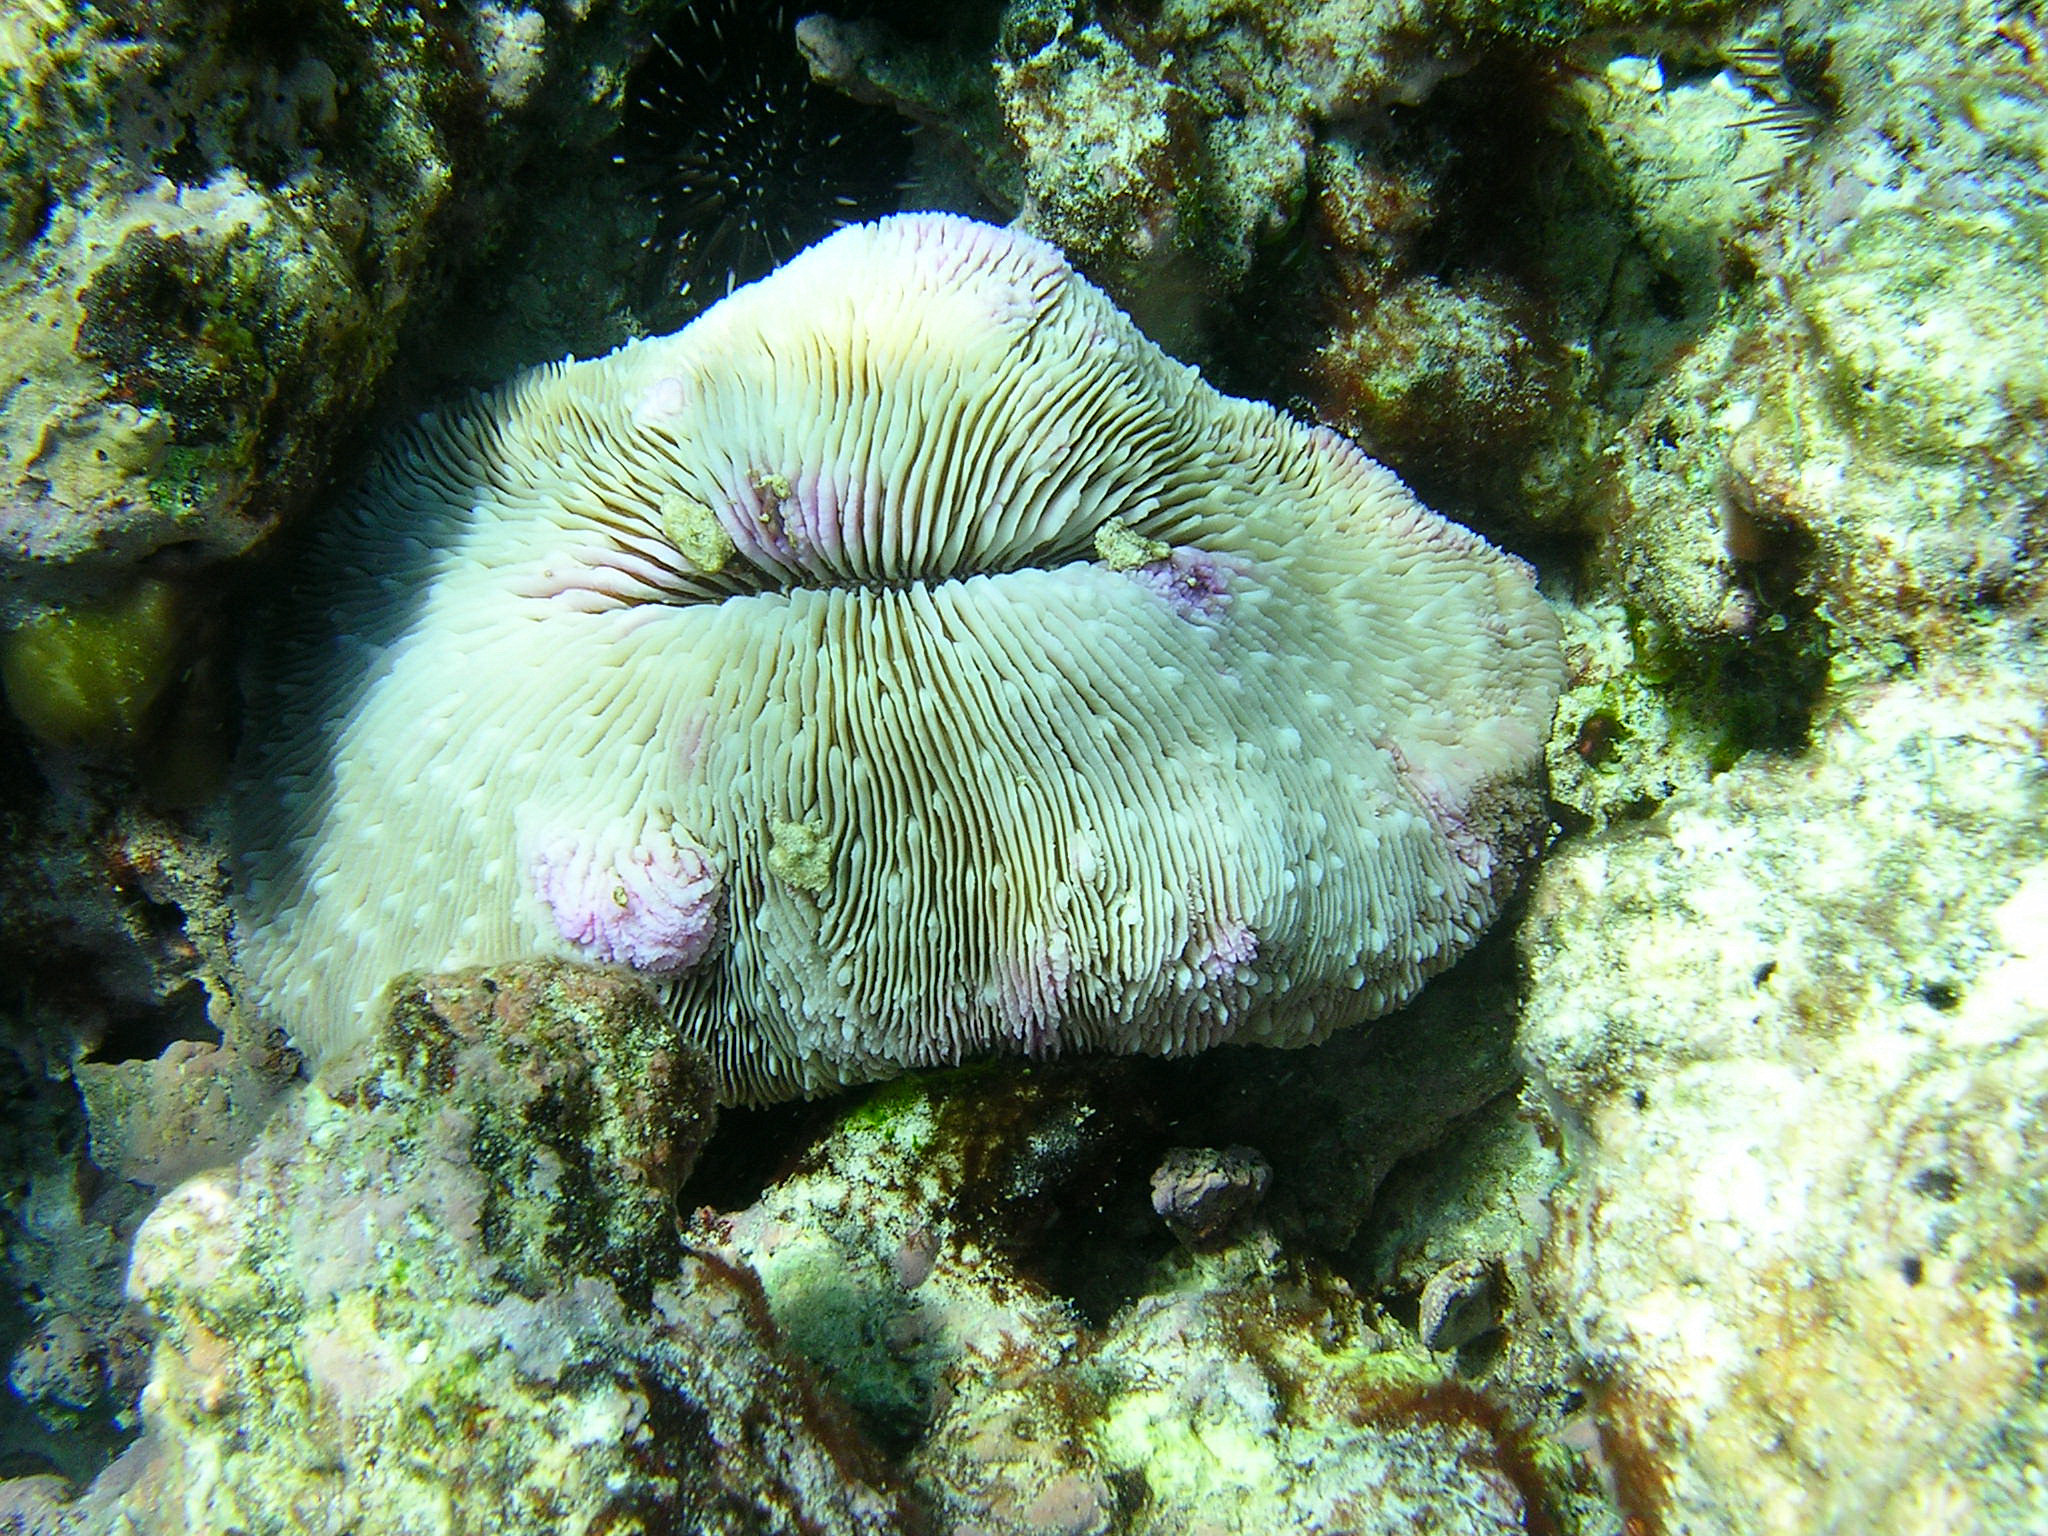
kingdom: Animalia
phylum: Cnidaria
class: Anthozoa
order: Scleractinia
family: Fungiidae
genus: Lobactis
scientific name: Lobactis scutaria
